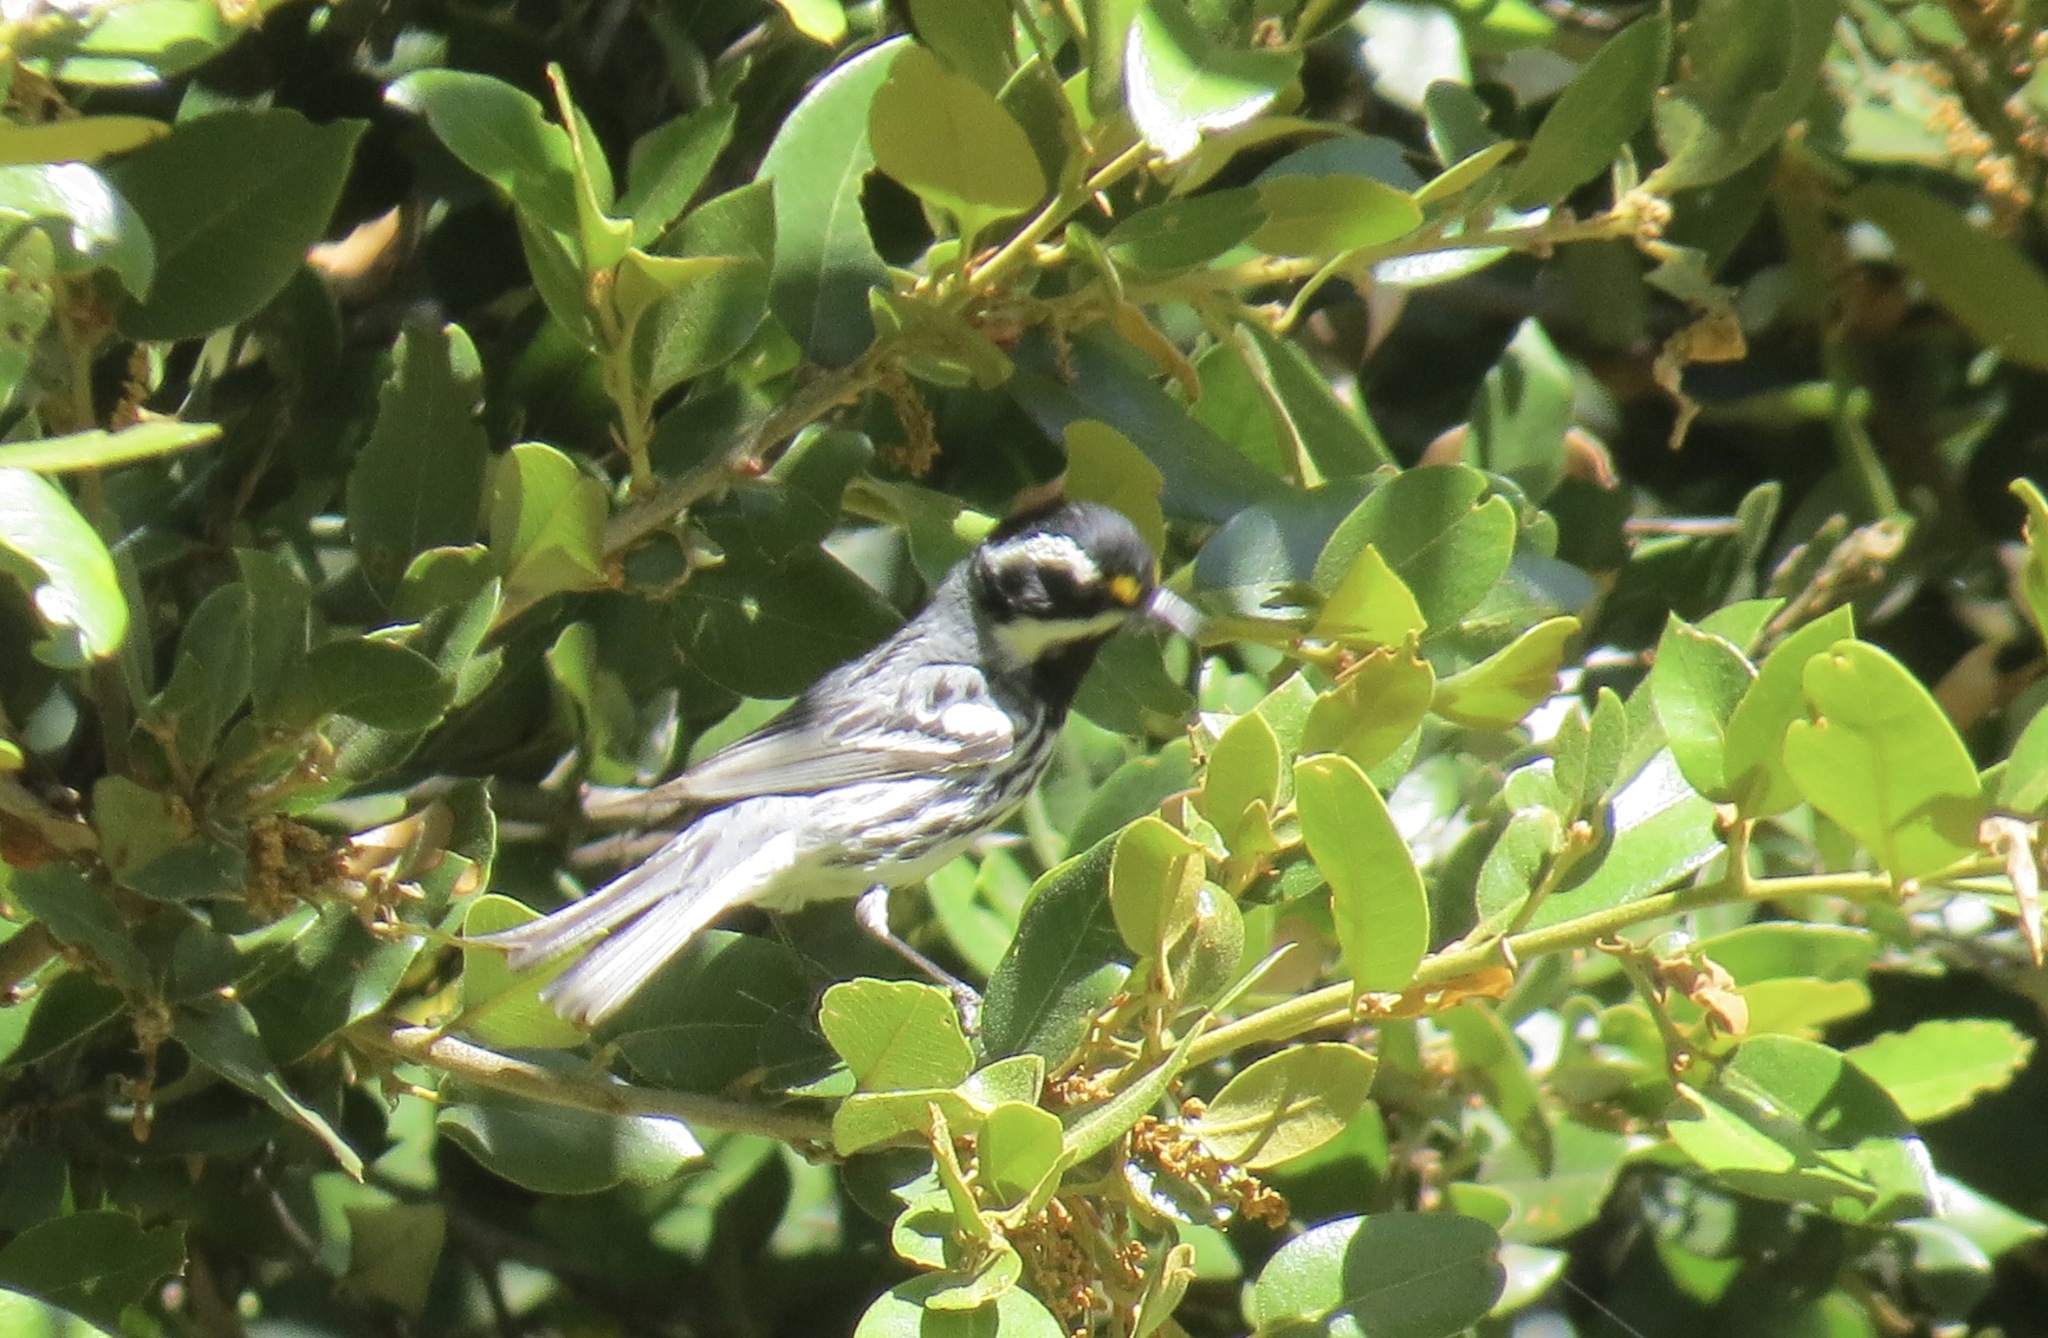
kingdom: Animalia
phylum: Chordata
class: Aves
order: Passeriformes
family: Parulidae
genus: Setophaga
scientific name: Setophaga nigrescens
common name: Black-throated gray warbler
